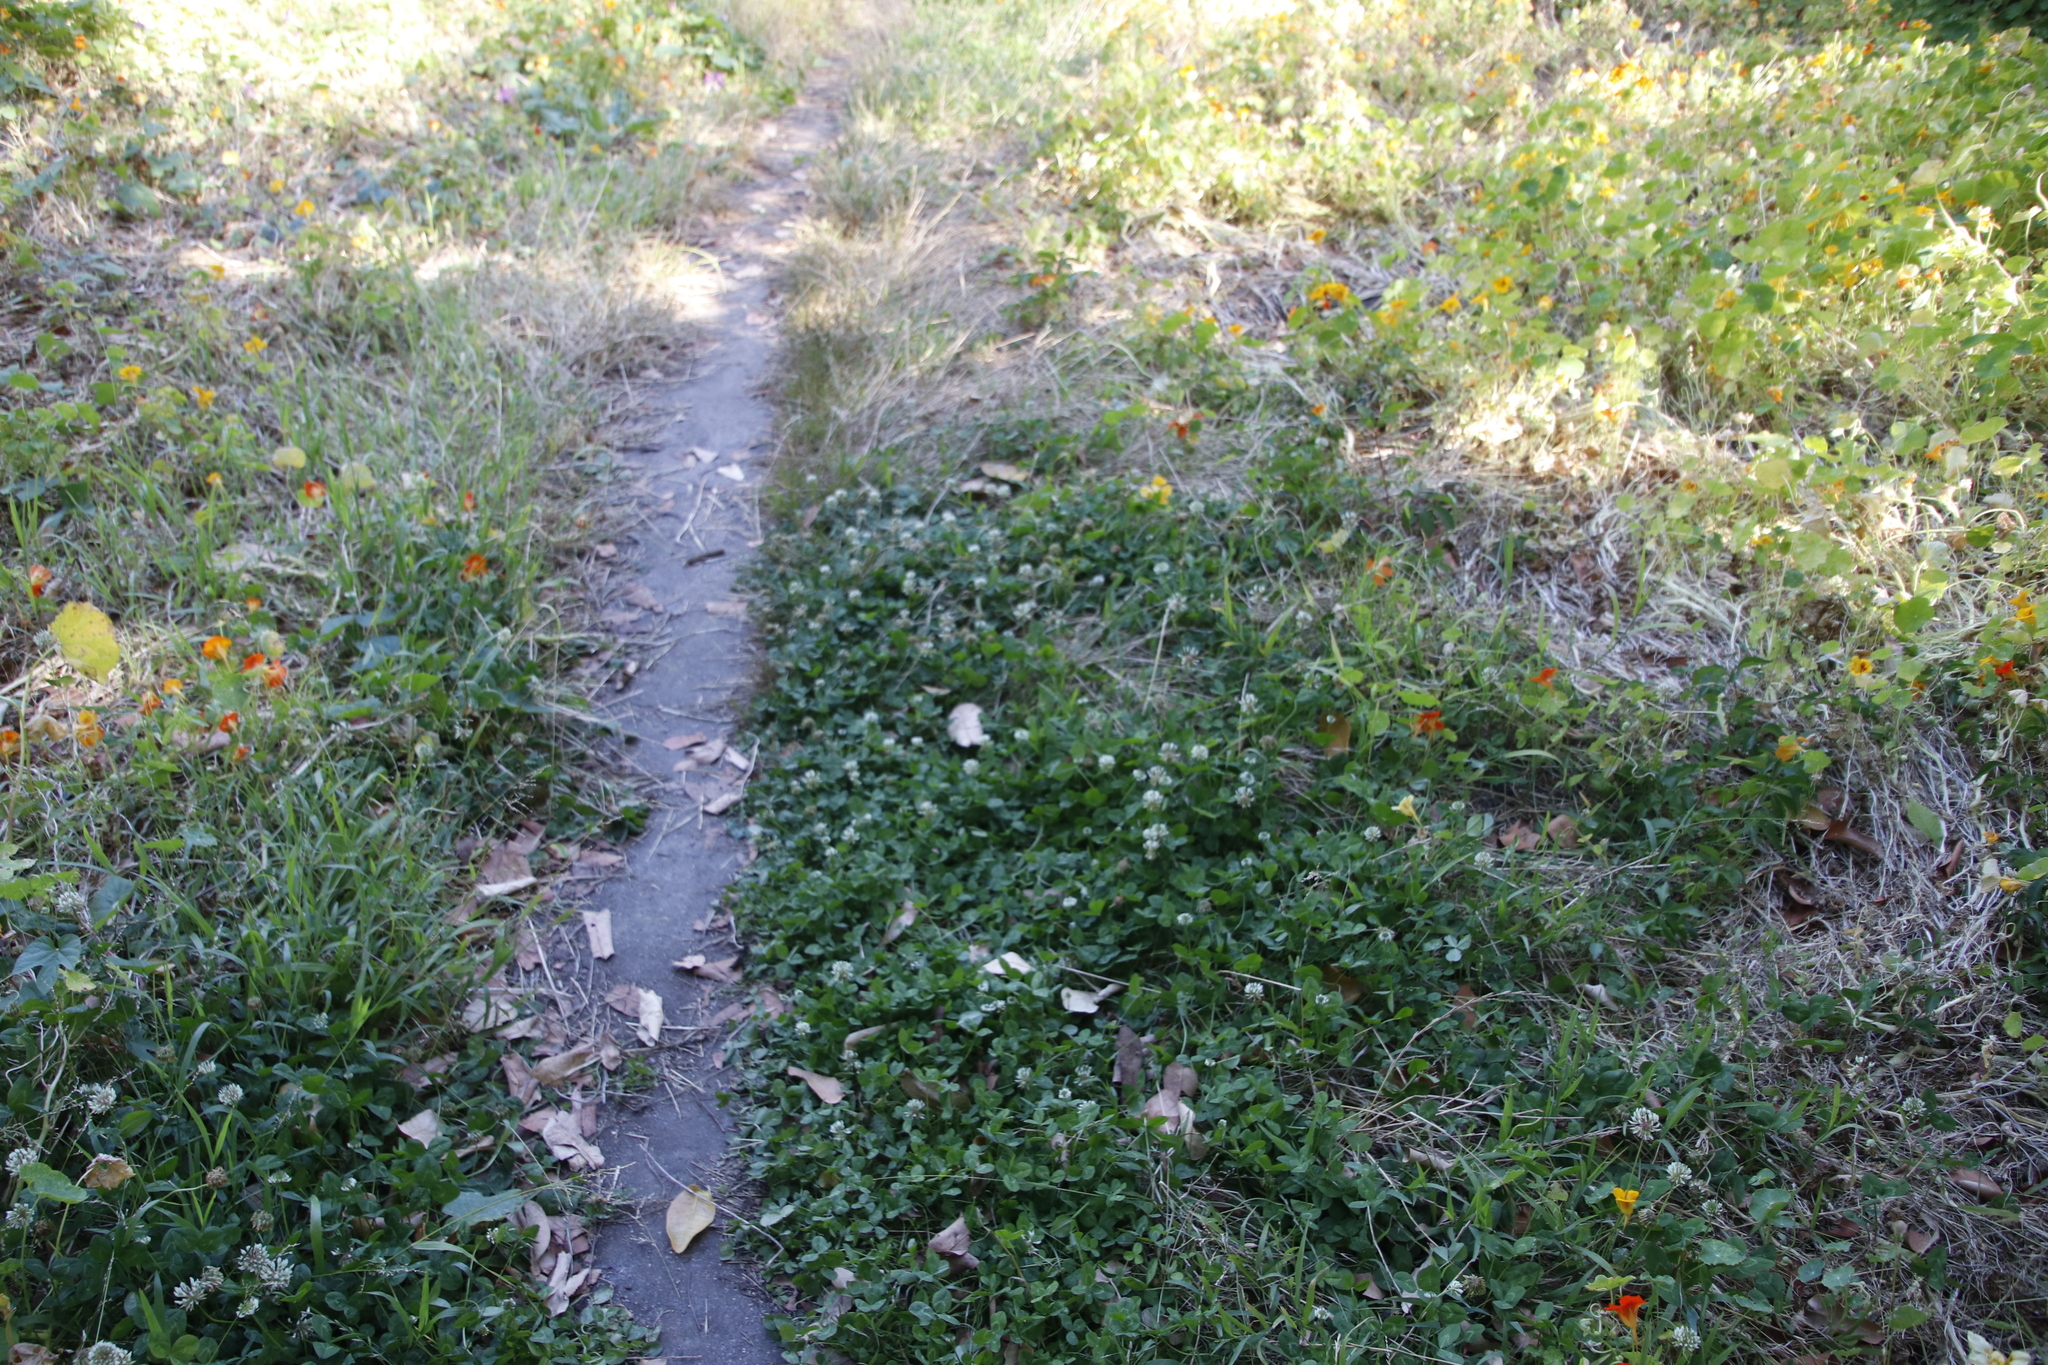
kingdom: Plantae
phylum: Tracheophyta
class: Magnoliopsida
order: Fabales
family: Fabaceae
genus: Trifolium
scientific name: Trifolium repens
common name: White clover
